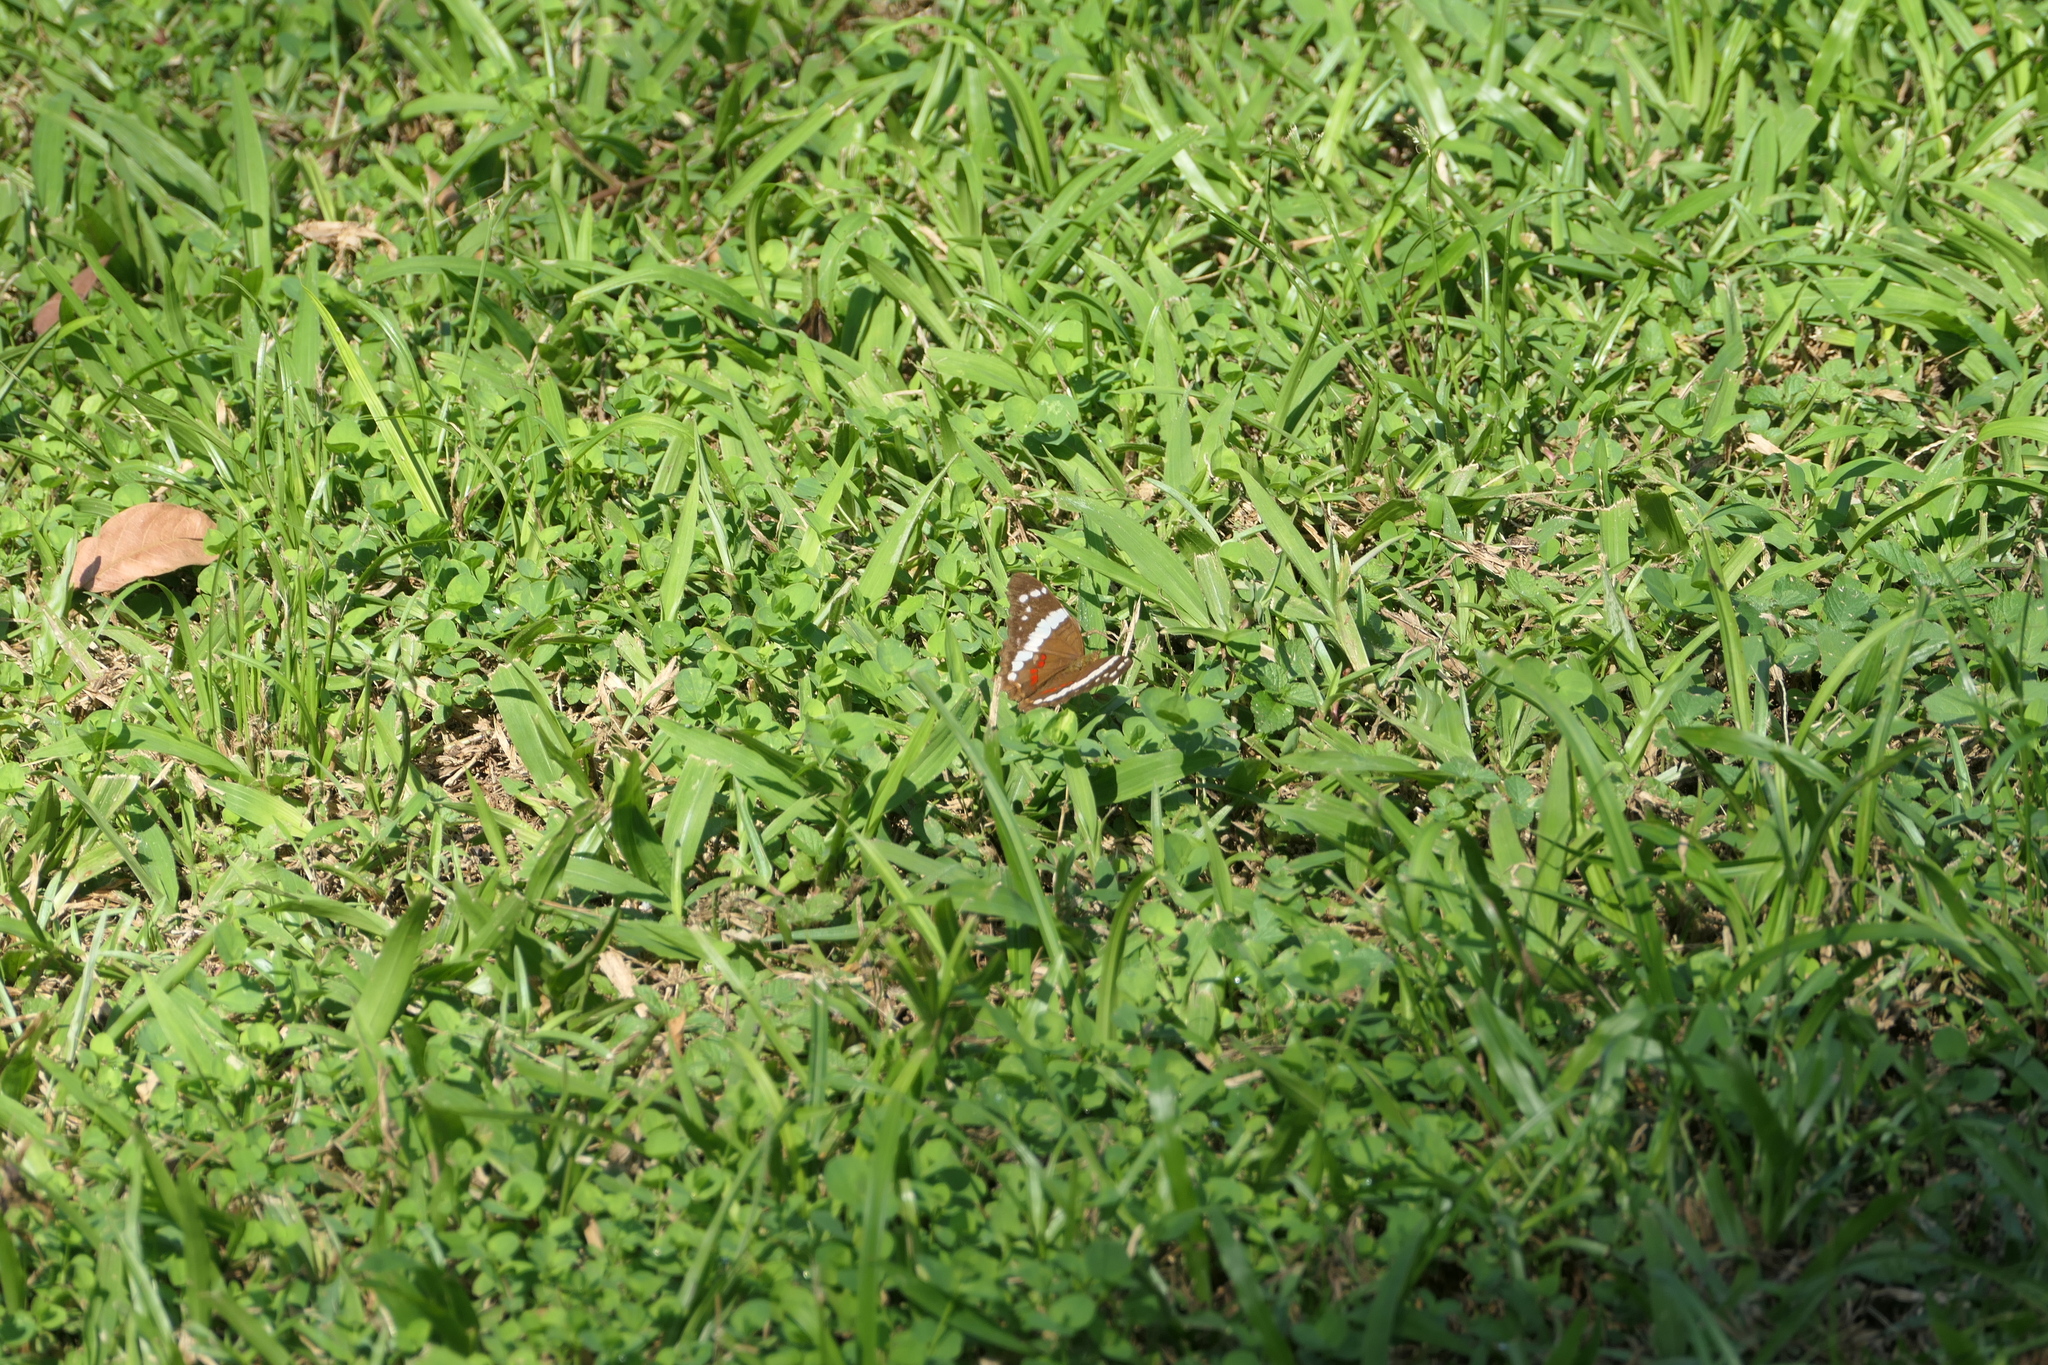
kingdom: Animalia
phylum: Arthropoda
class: Insecta
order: Lepidoptera
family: Nymphalidae
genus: Anartia
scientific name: Anartia fatima
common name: Banded peacock
